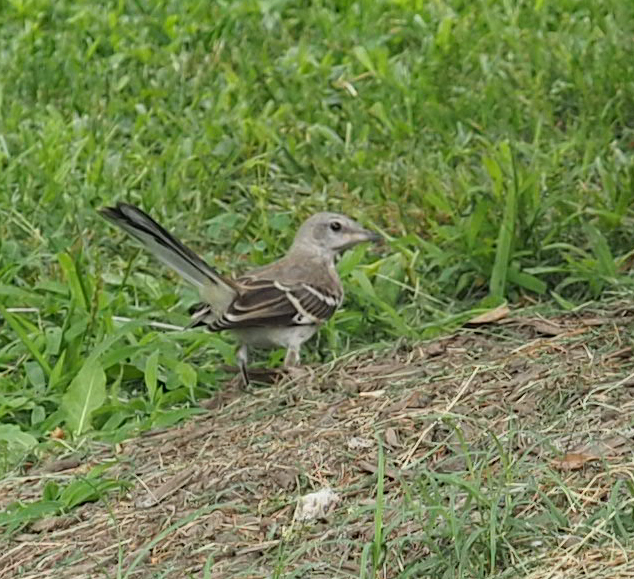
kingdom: Animalia
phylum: Chordata
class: Aves
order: Passeriformes
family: Mimidae
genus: Mimus
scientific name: Mimus polyglottos
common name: Northern mockingbird
